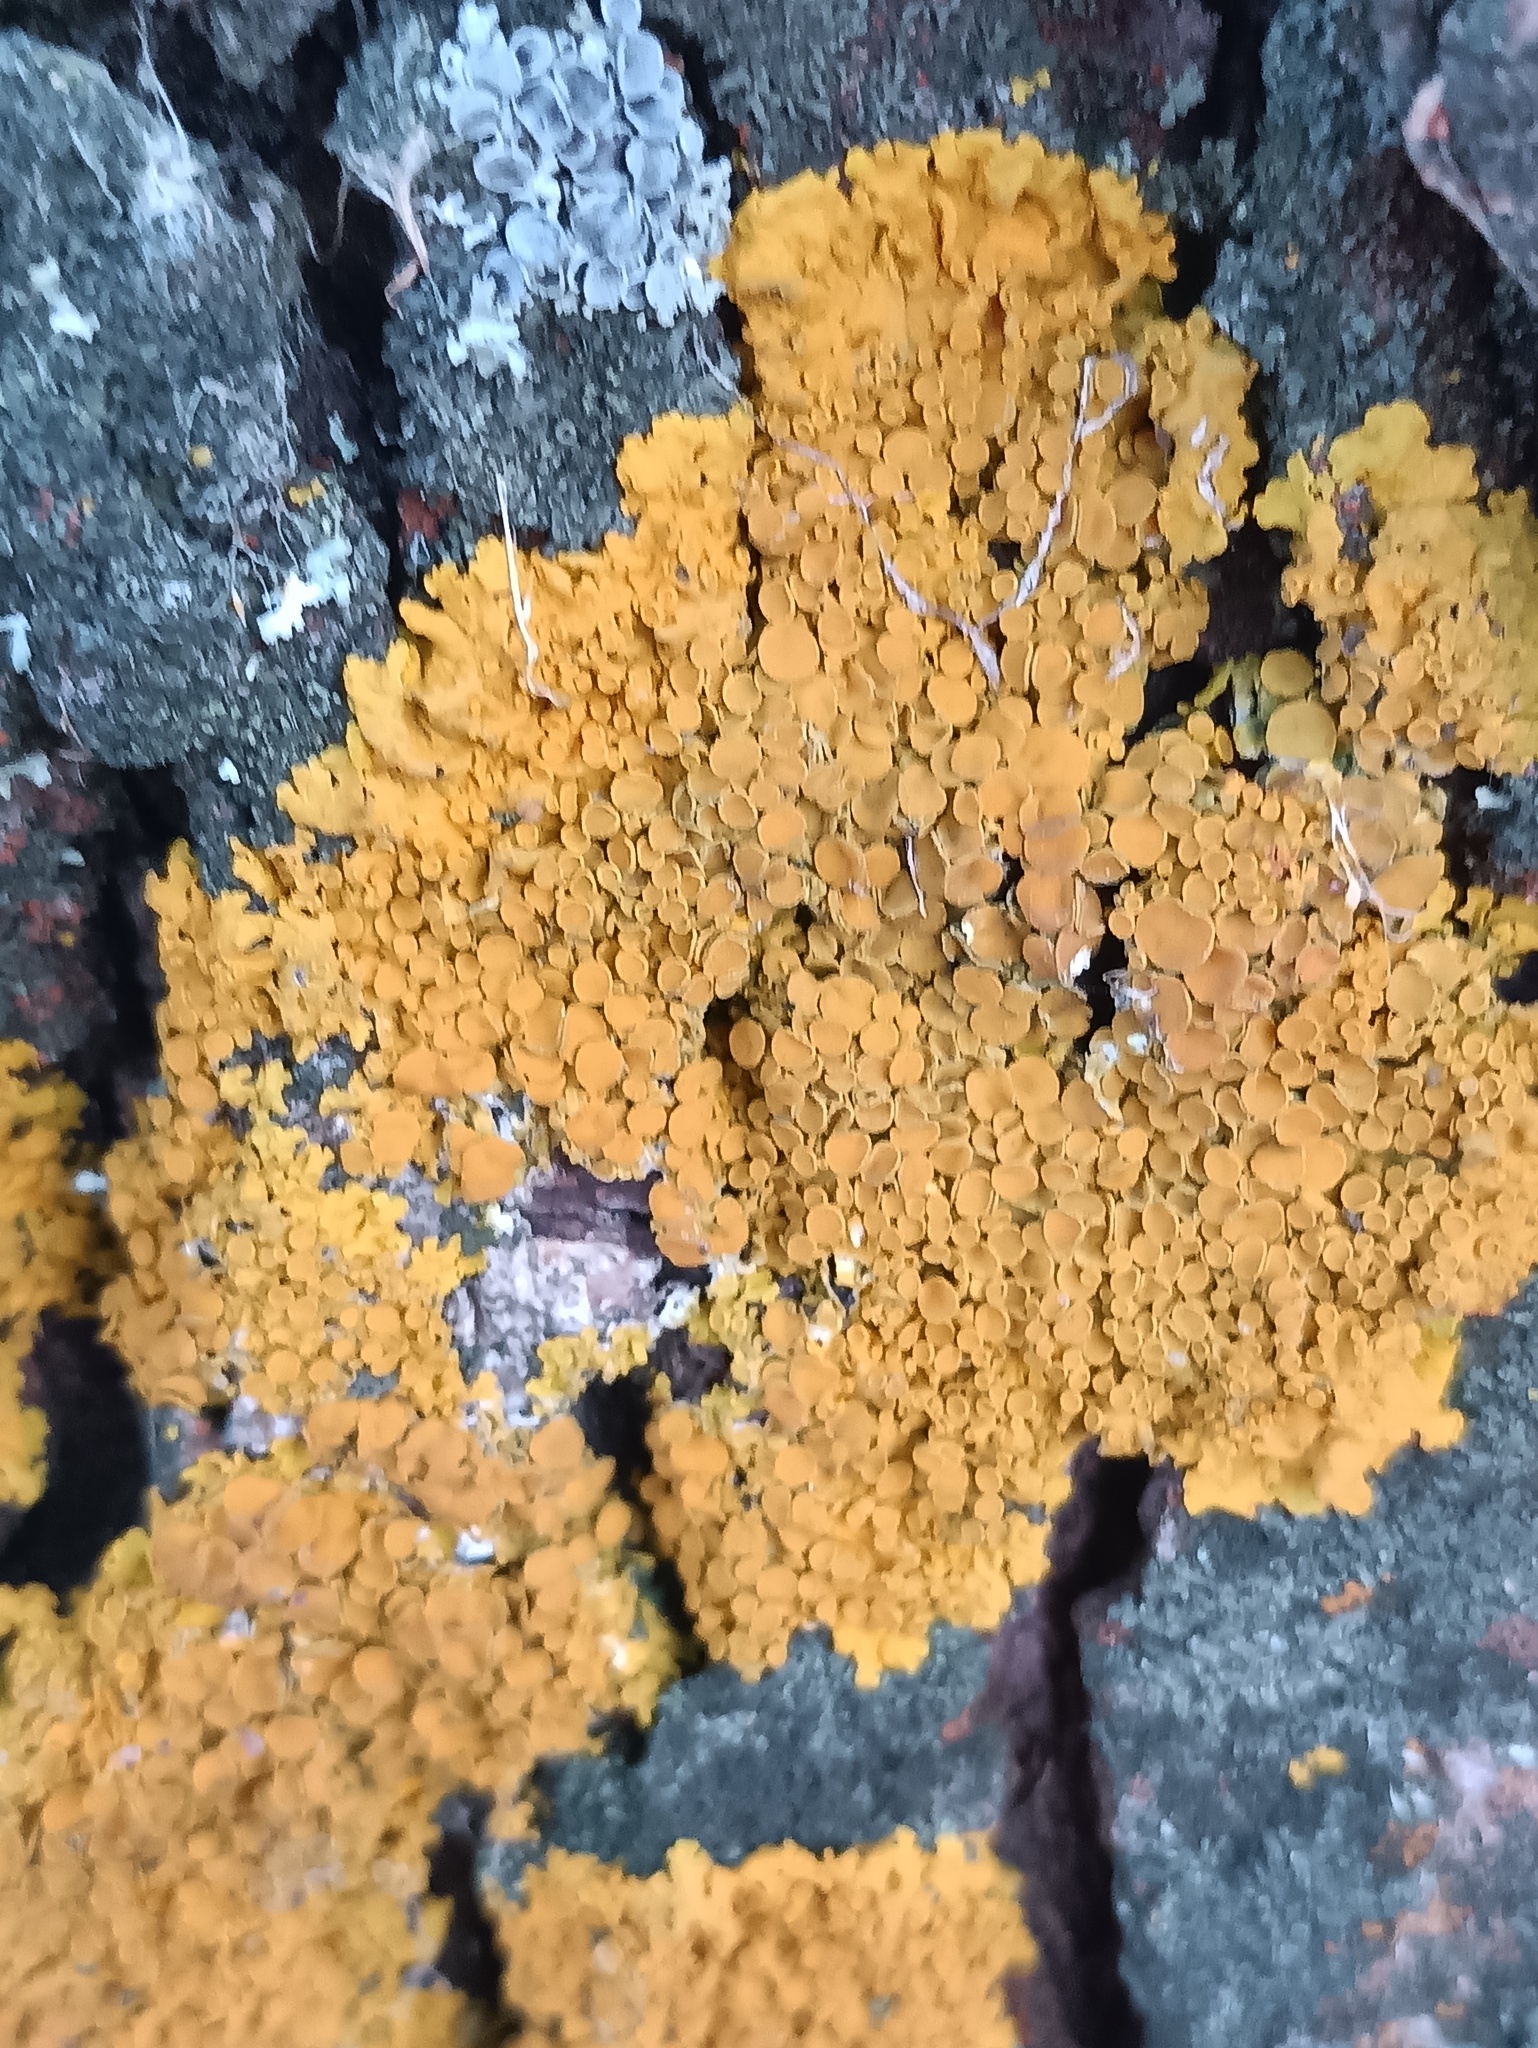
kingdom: Fungi
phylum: Ascomycota
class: Lecanoromycetes
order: Teloschistales
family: Teloschistaceae
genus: Xanthoria
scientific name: Xanthoria parietina
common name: Common orange lichen
